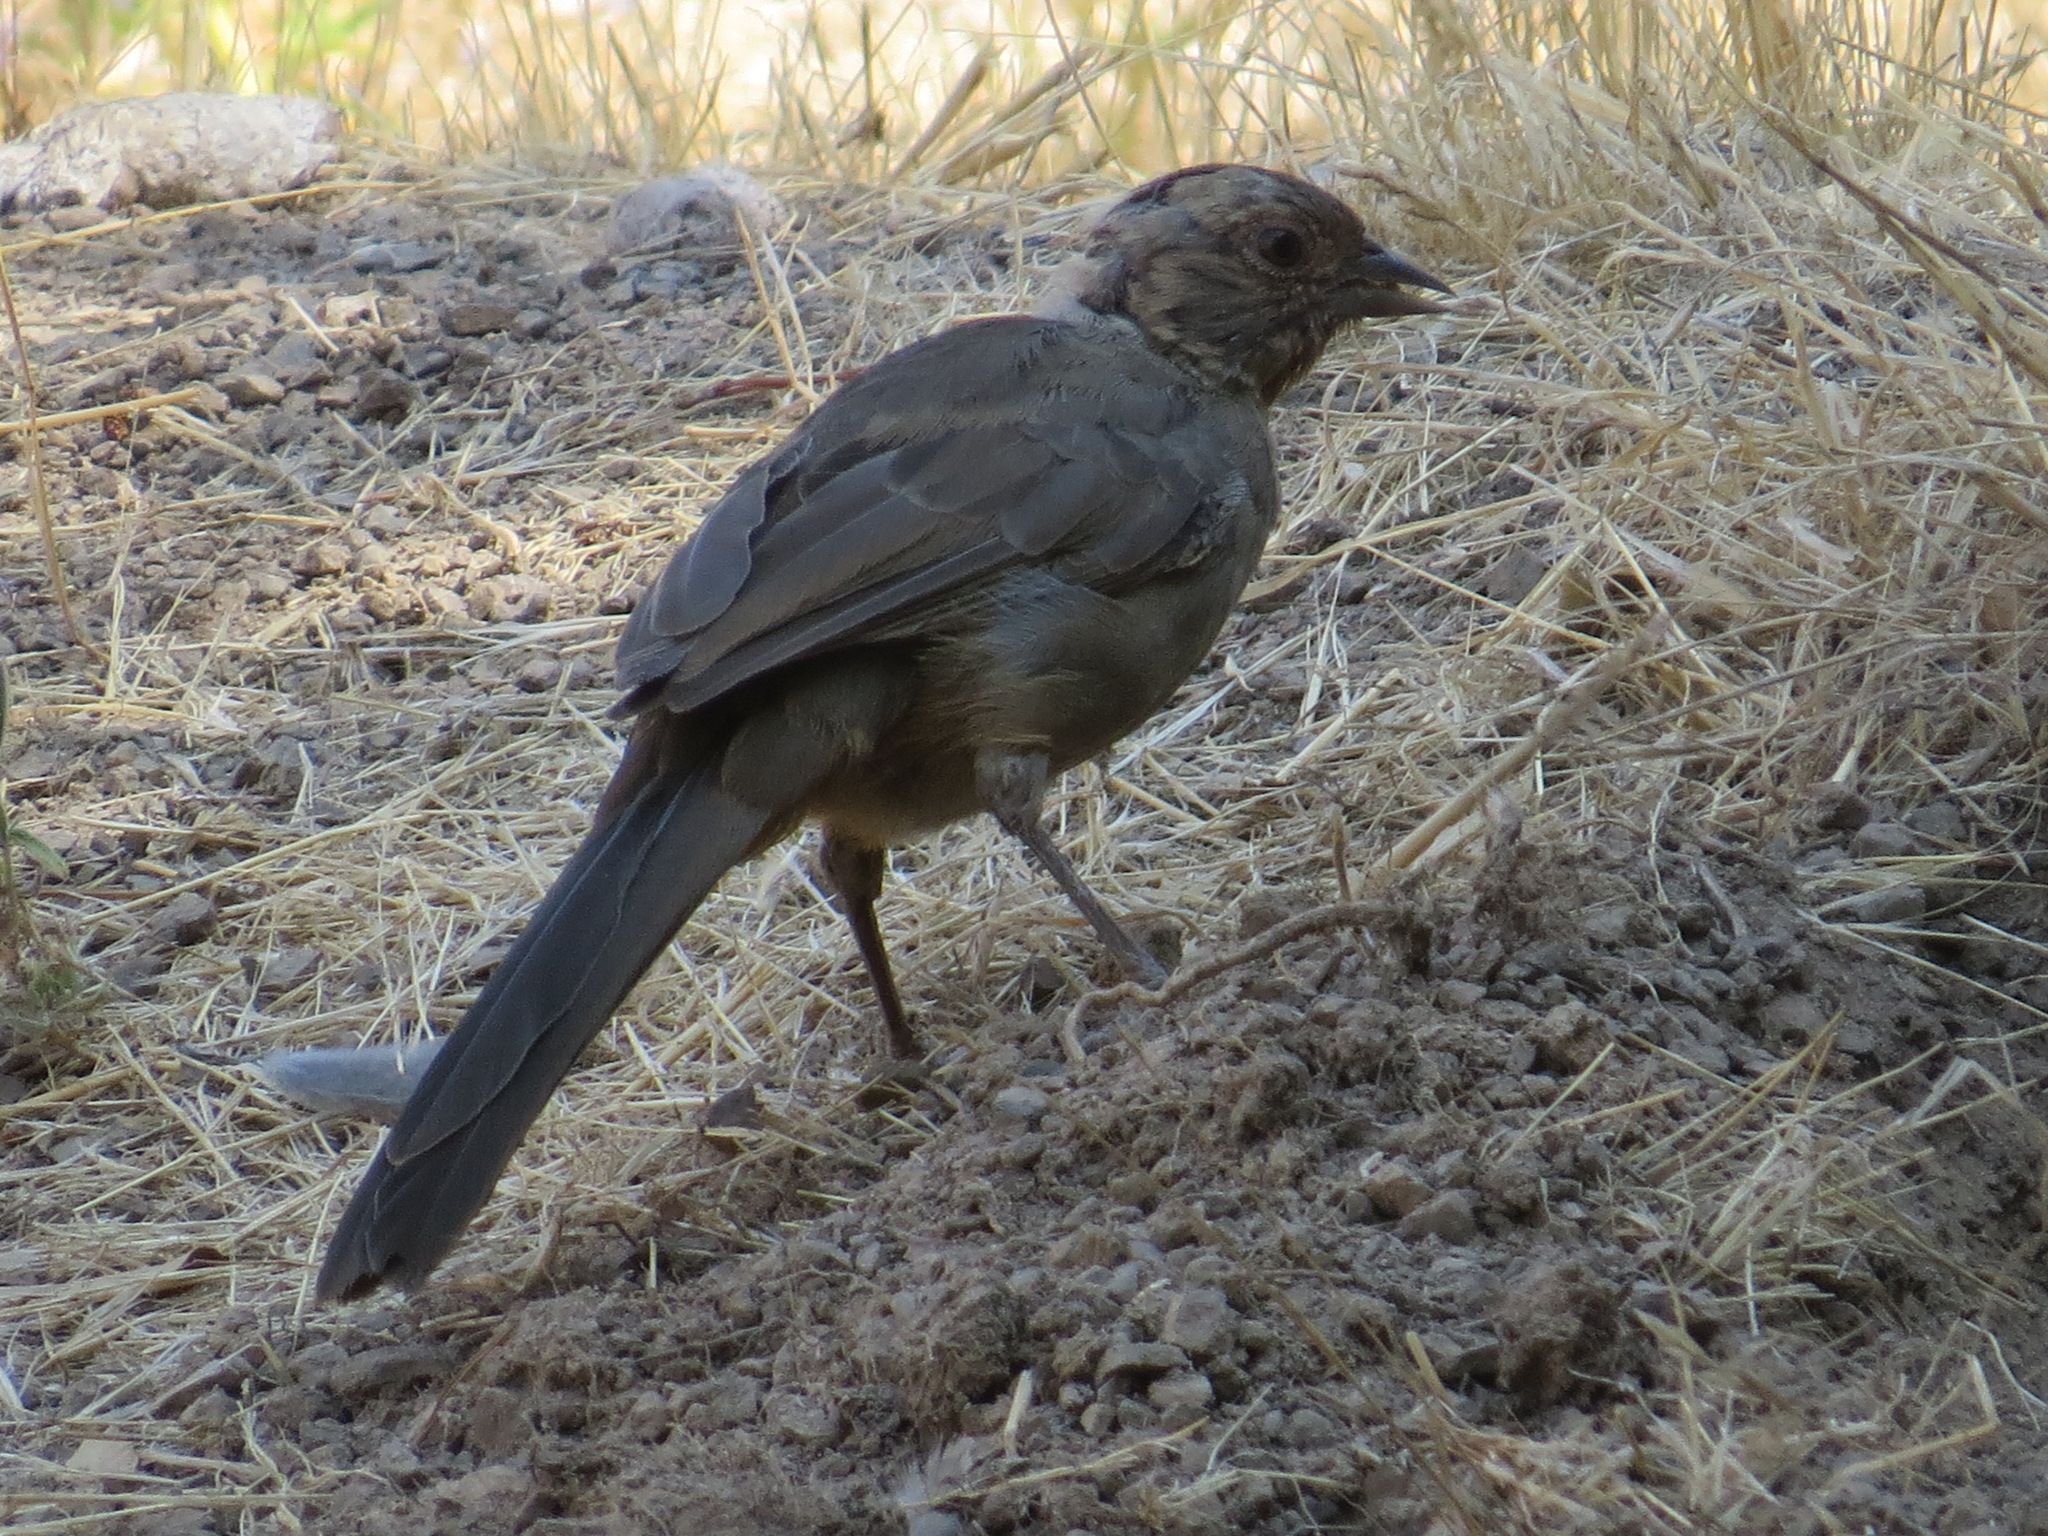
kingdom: Animalia
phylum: Chordata
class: Aves
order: Passeriformes
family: Passerellidae
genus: Melozone
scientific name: Melozone crissalis
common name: California towhee
